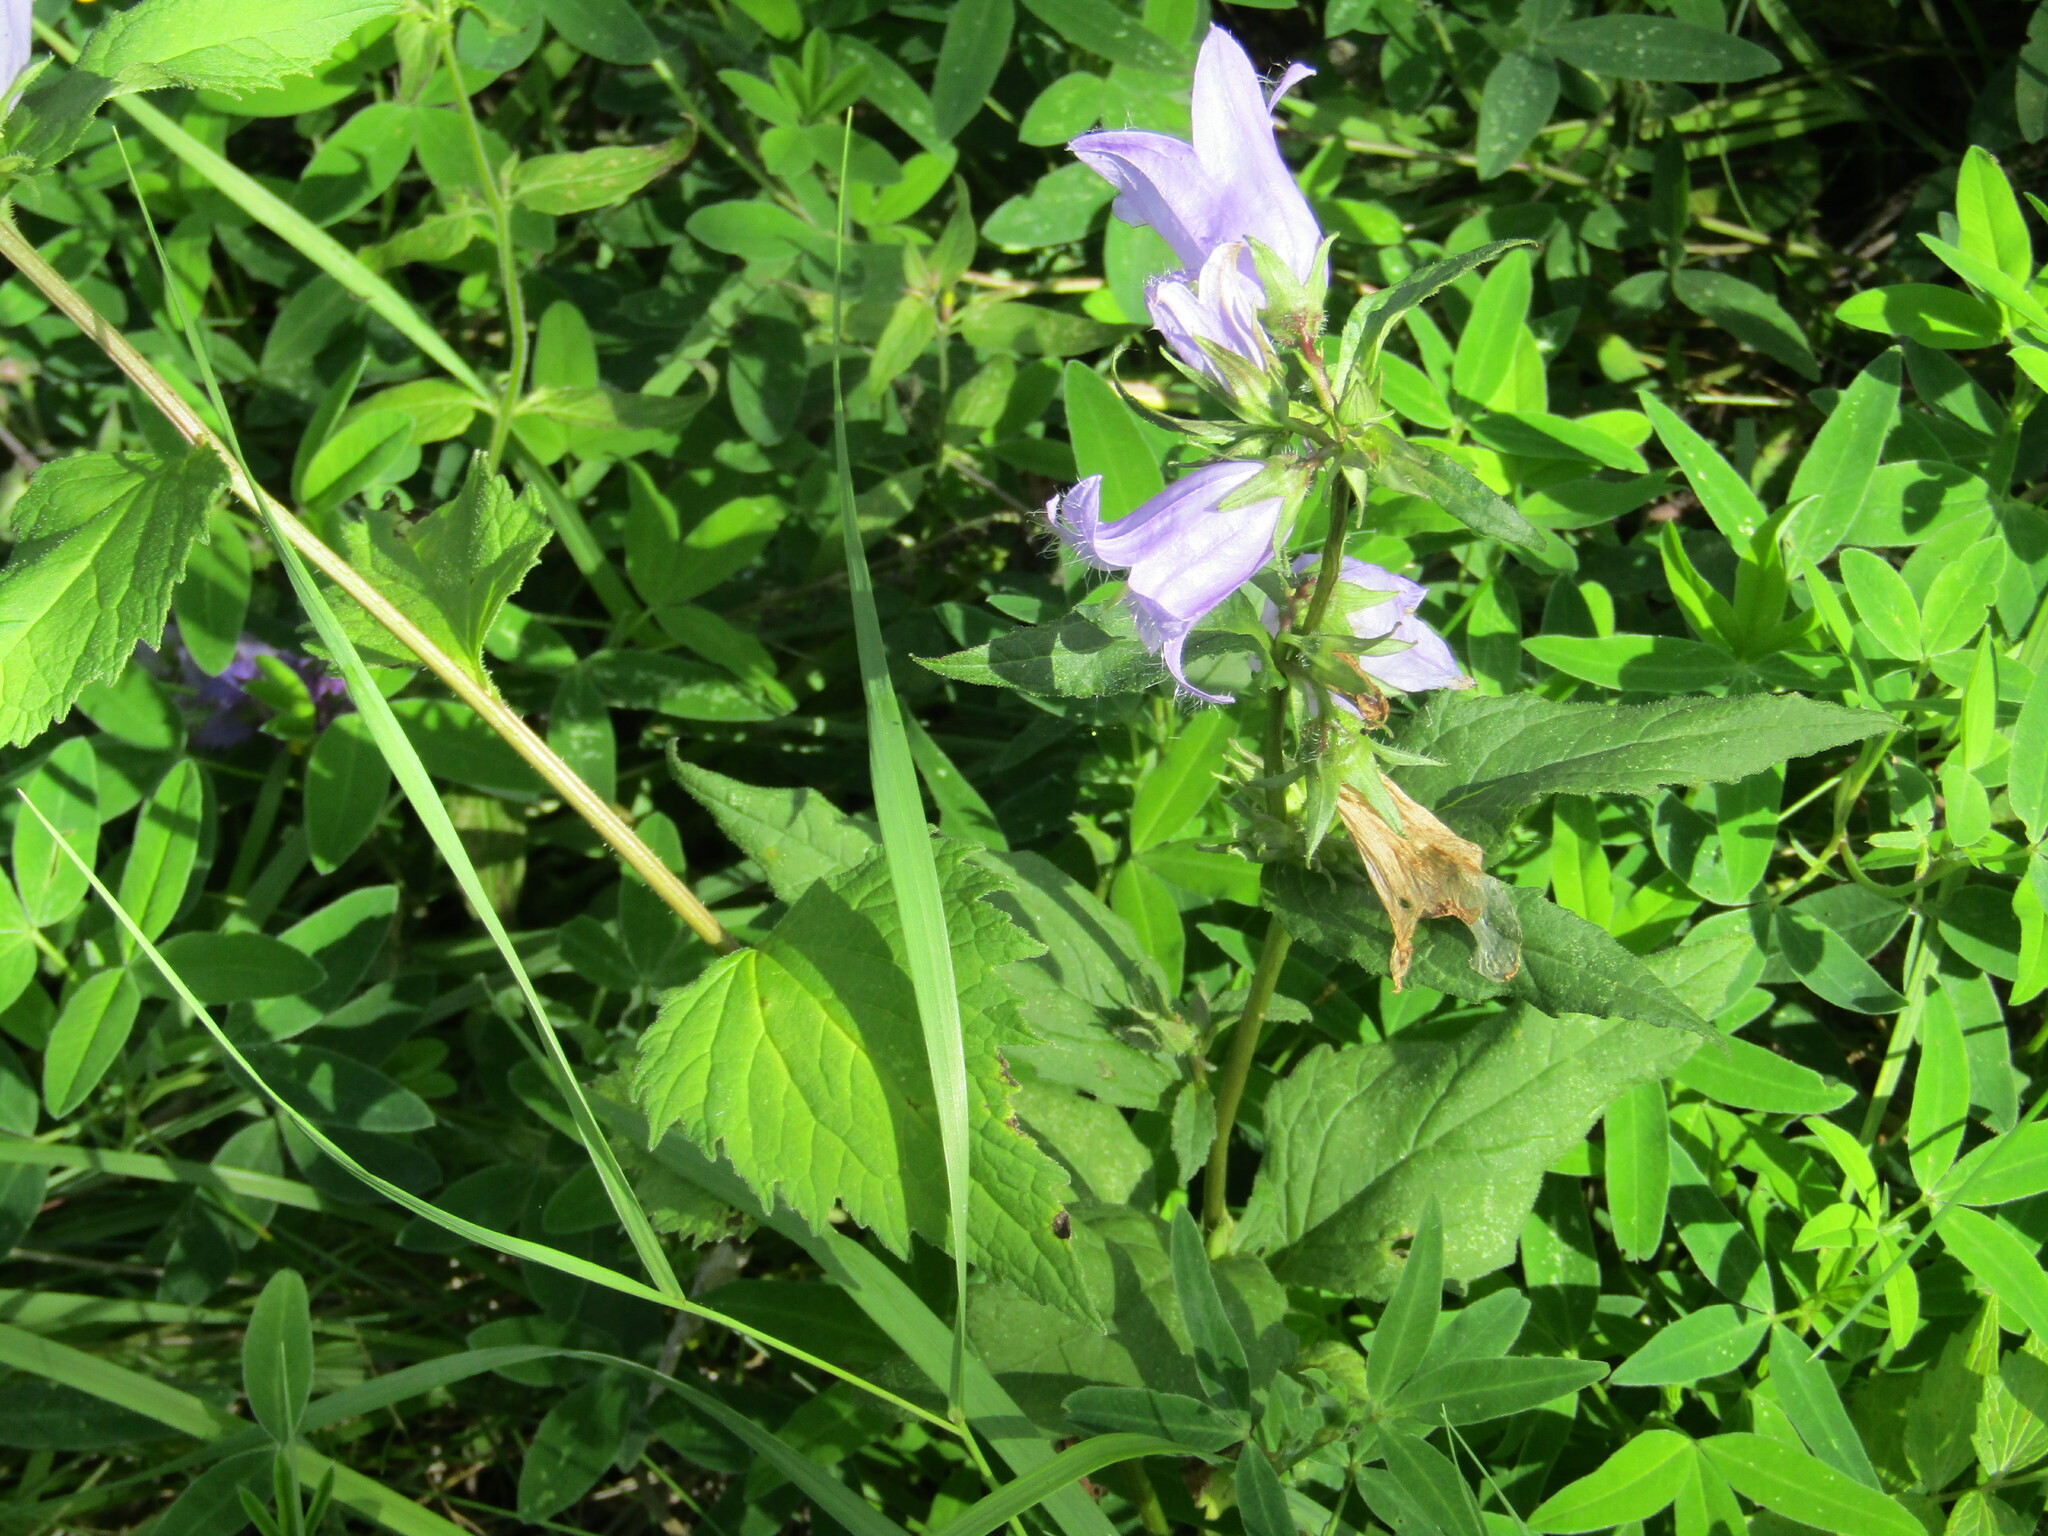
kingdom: Plantae
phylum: Tracheophyta
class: Magnoliopsida
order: Asterales
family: Campanulaceae
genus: Campanula
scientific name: Campanula trachelium
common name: Nettle-leaved bellflower
